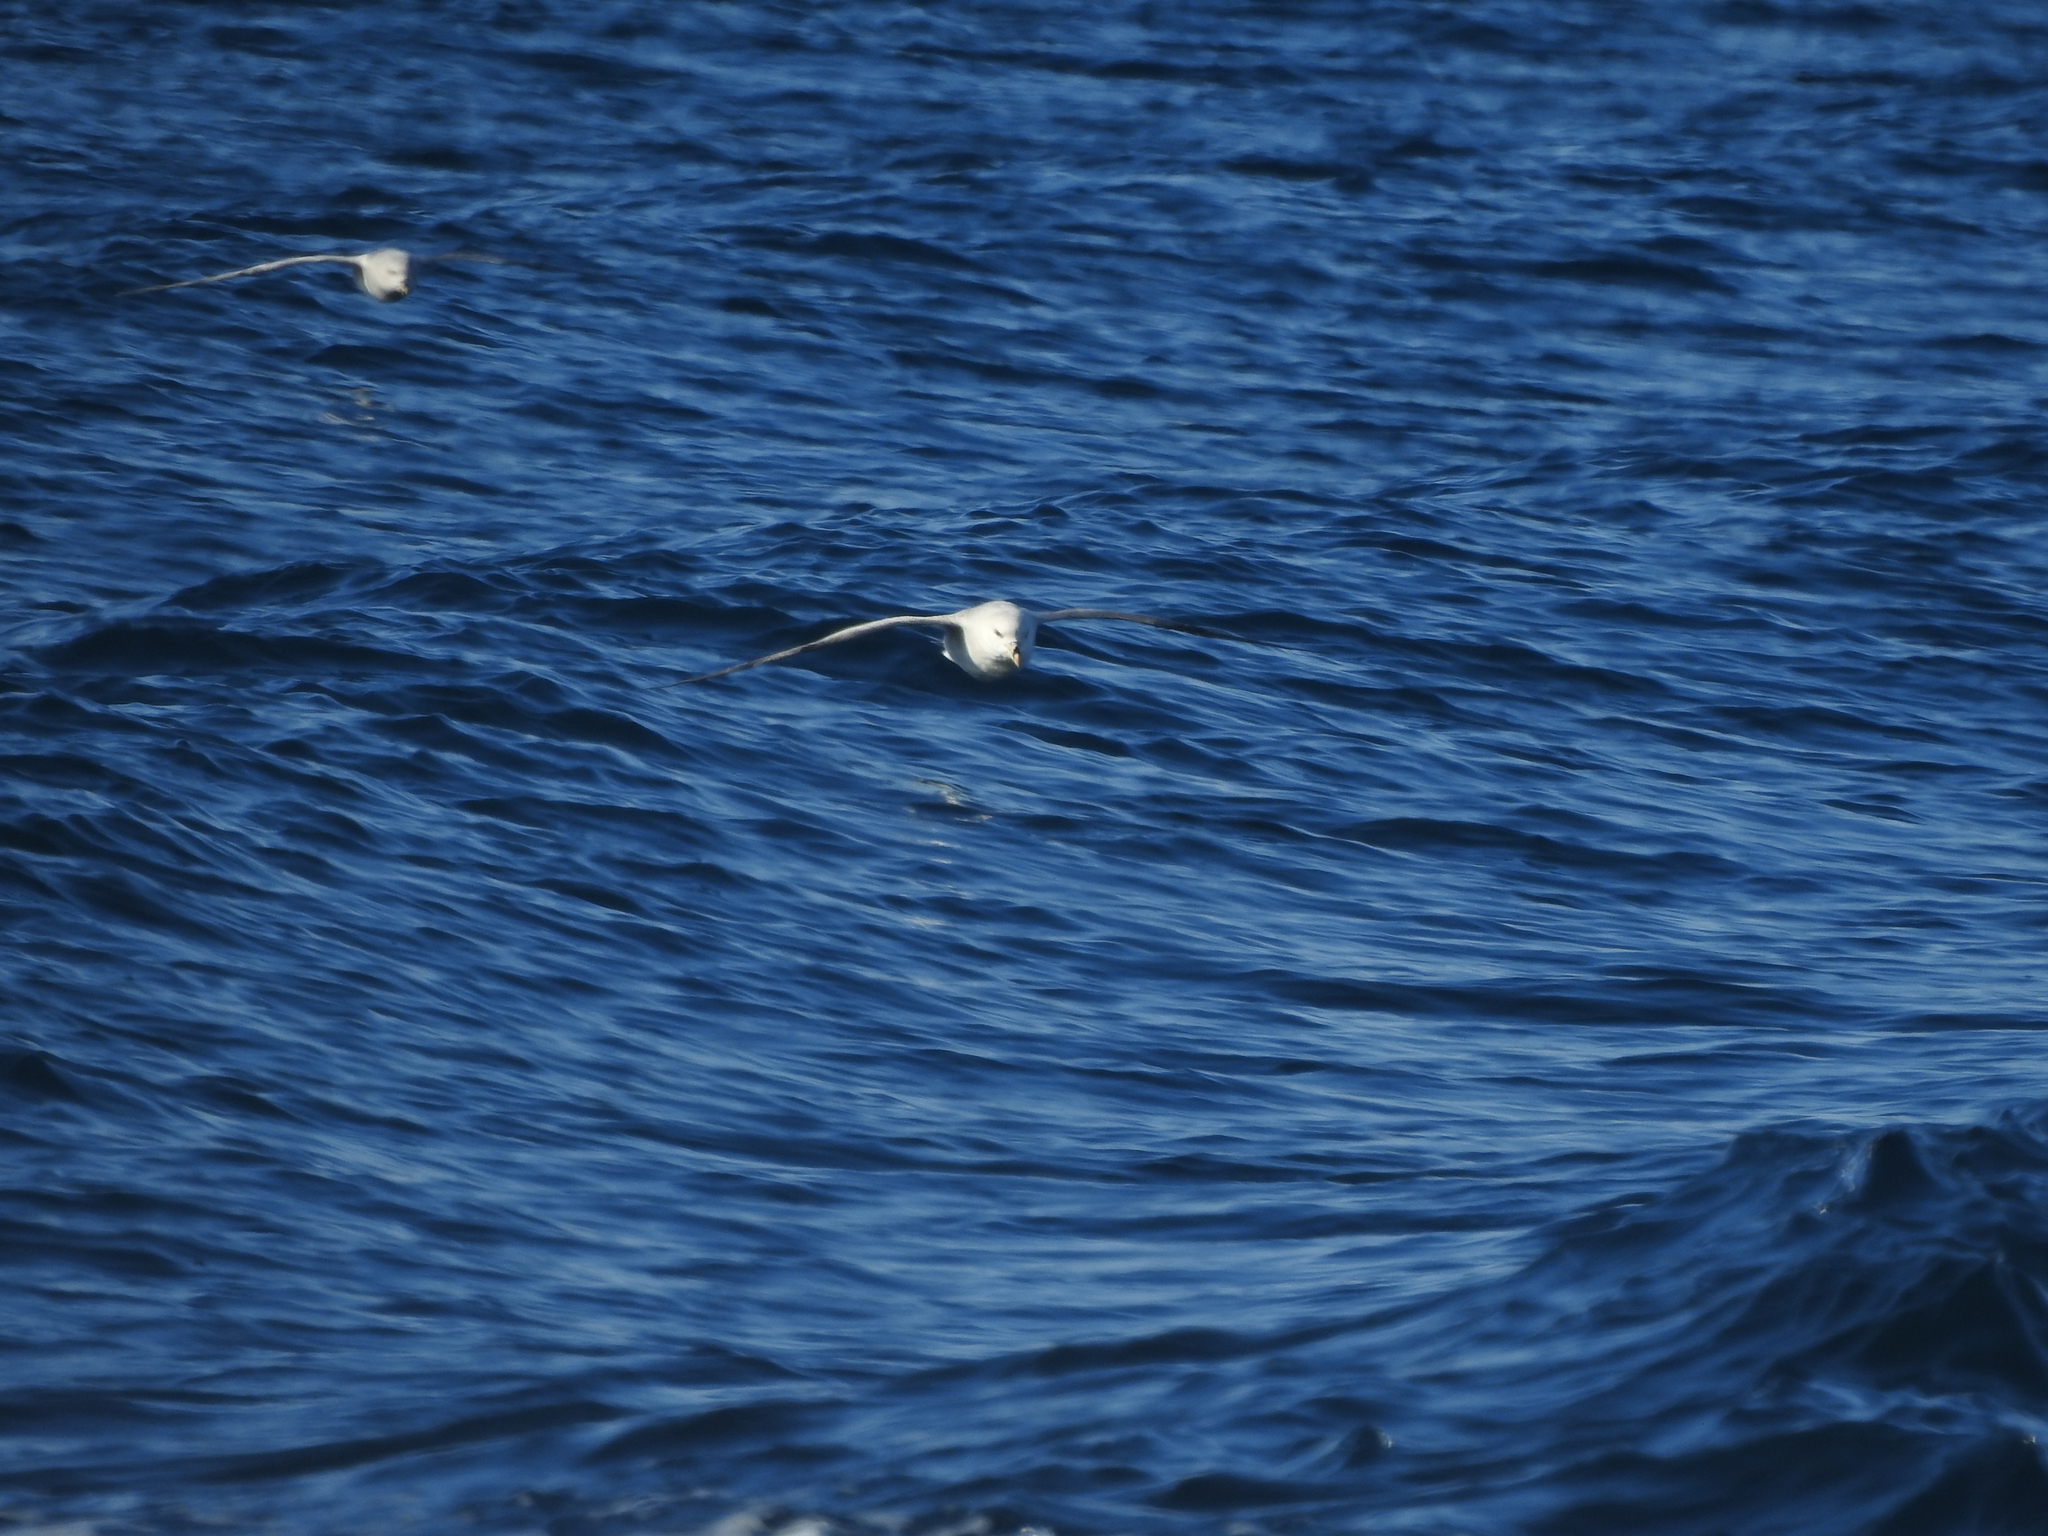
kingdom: Animalia
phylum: Chordata
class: Aves
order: Procellariiformes
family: Procellariidae
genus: Fulmarus
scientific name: Fulmarus glacialis
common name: Northern fulmar
